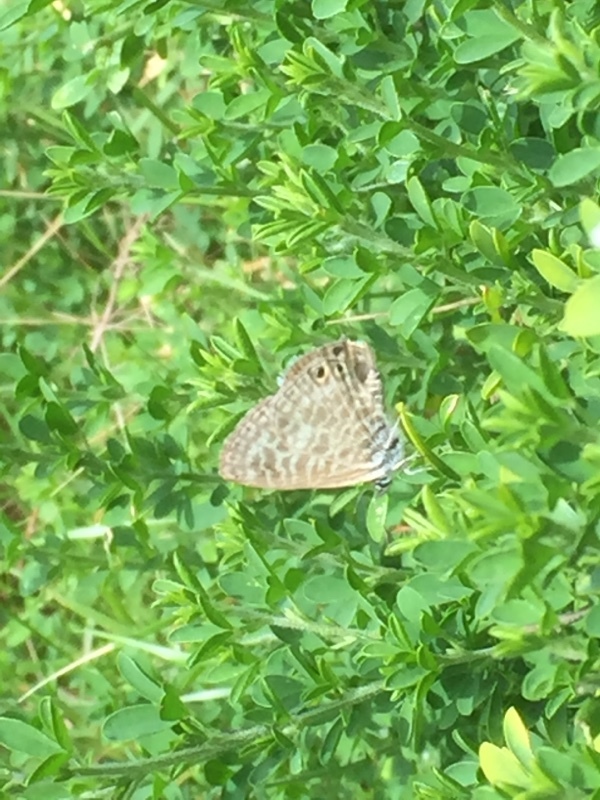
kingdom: Animalia
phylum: Arthropoda
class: Insecta
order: Lepidoptera
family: Lycaenidae
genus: Leptotes
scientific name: Leptotes pirithous
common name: Lang's short-tailed blue
